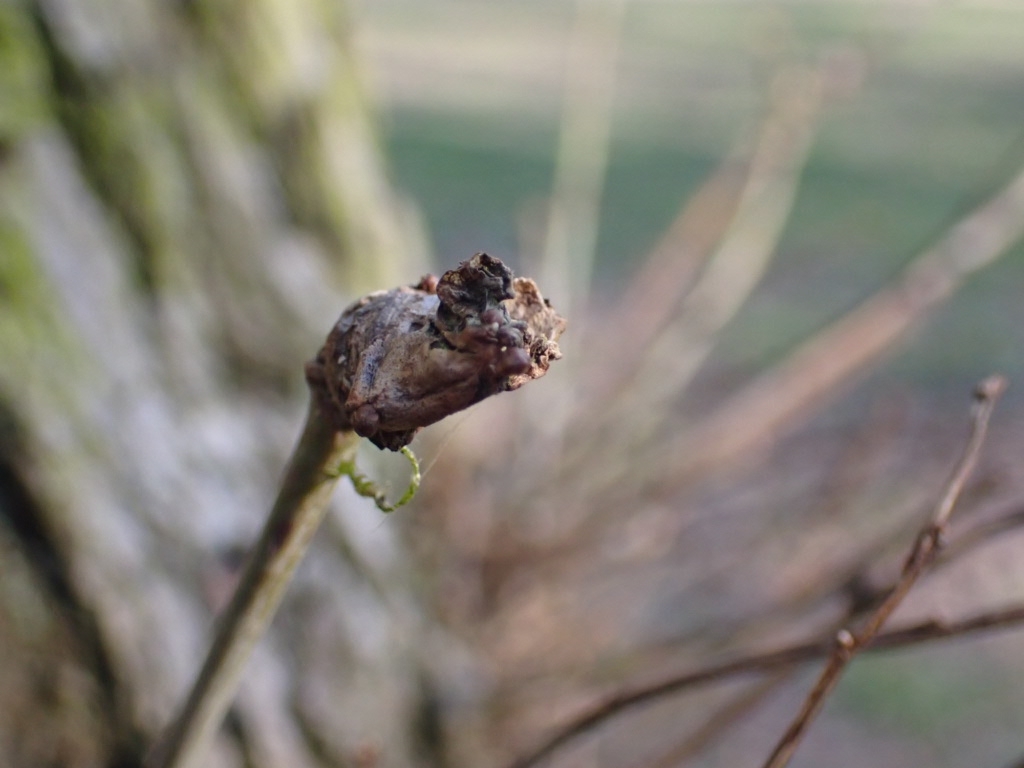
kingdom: Animalia
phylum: Arthropoda
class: Insecta
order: Hymenoptera
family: Cynipidae
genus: Andricus
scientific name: Andricus aries
